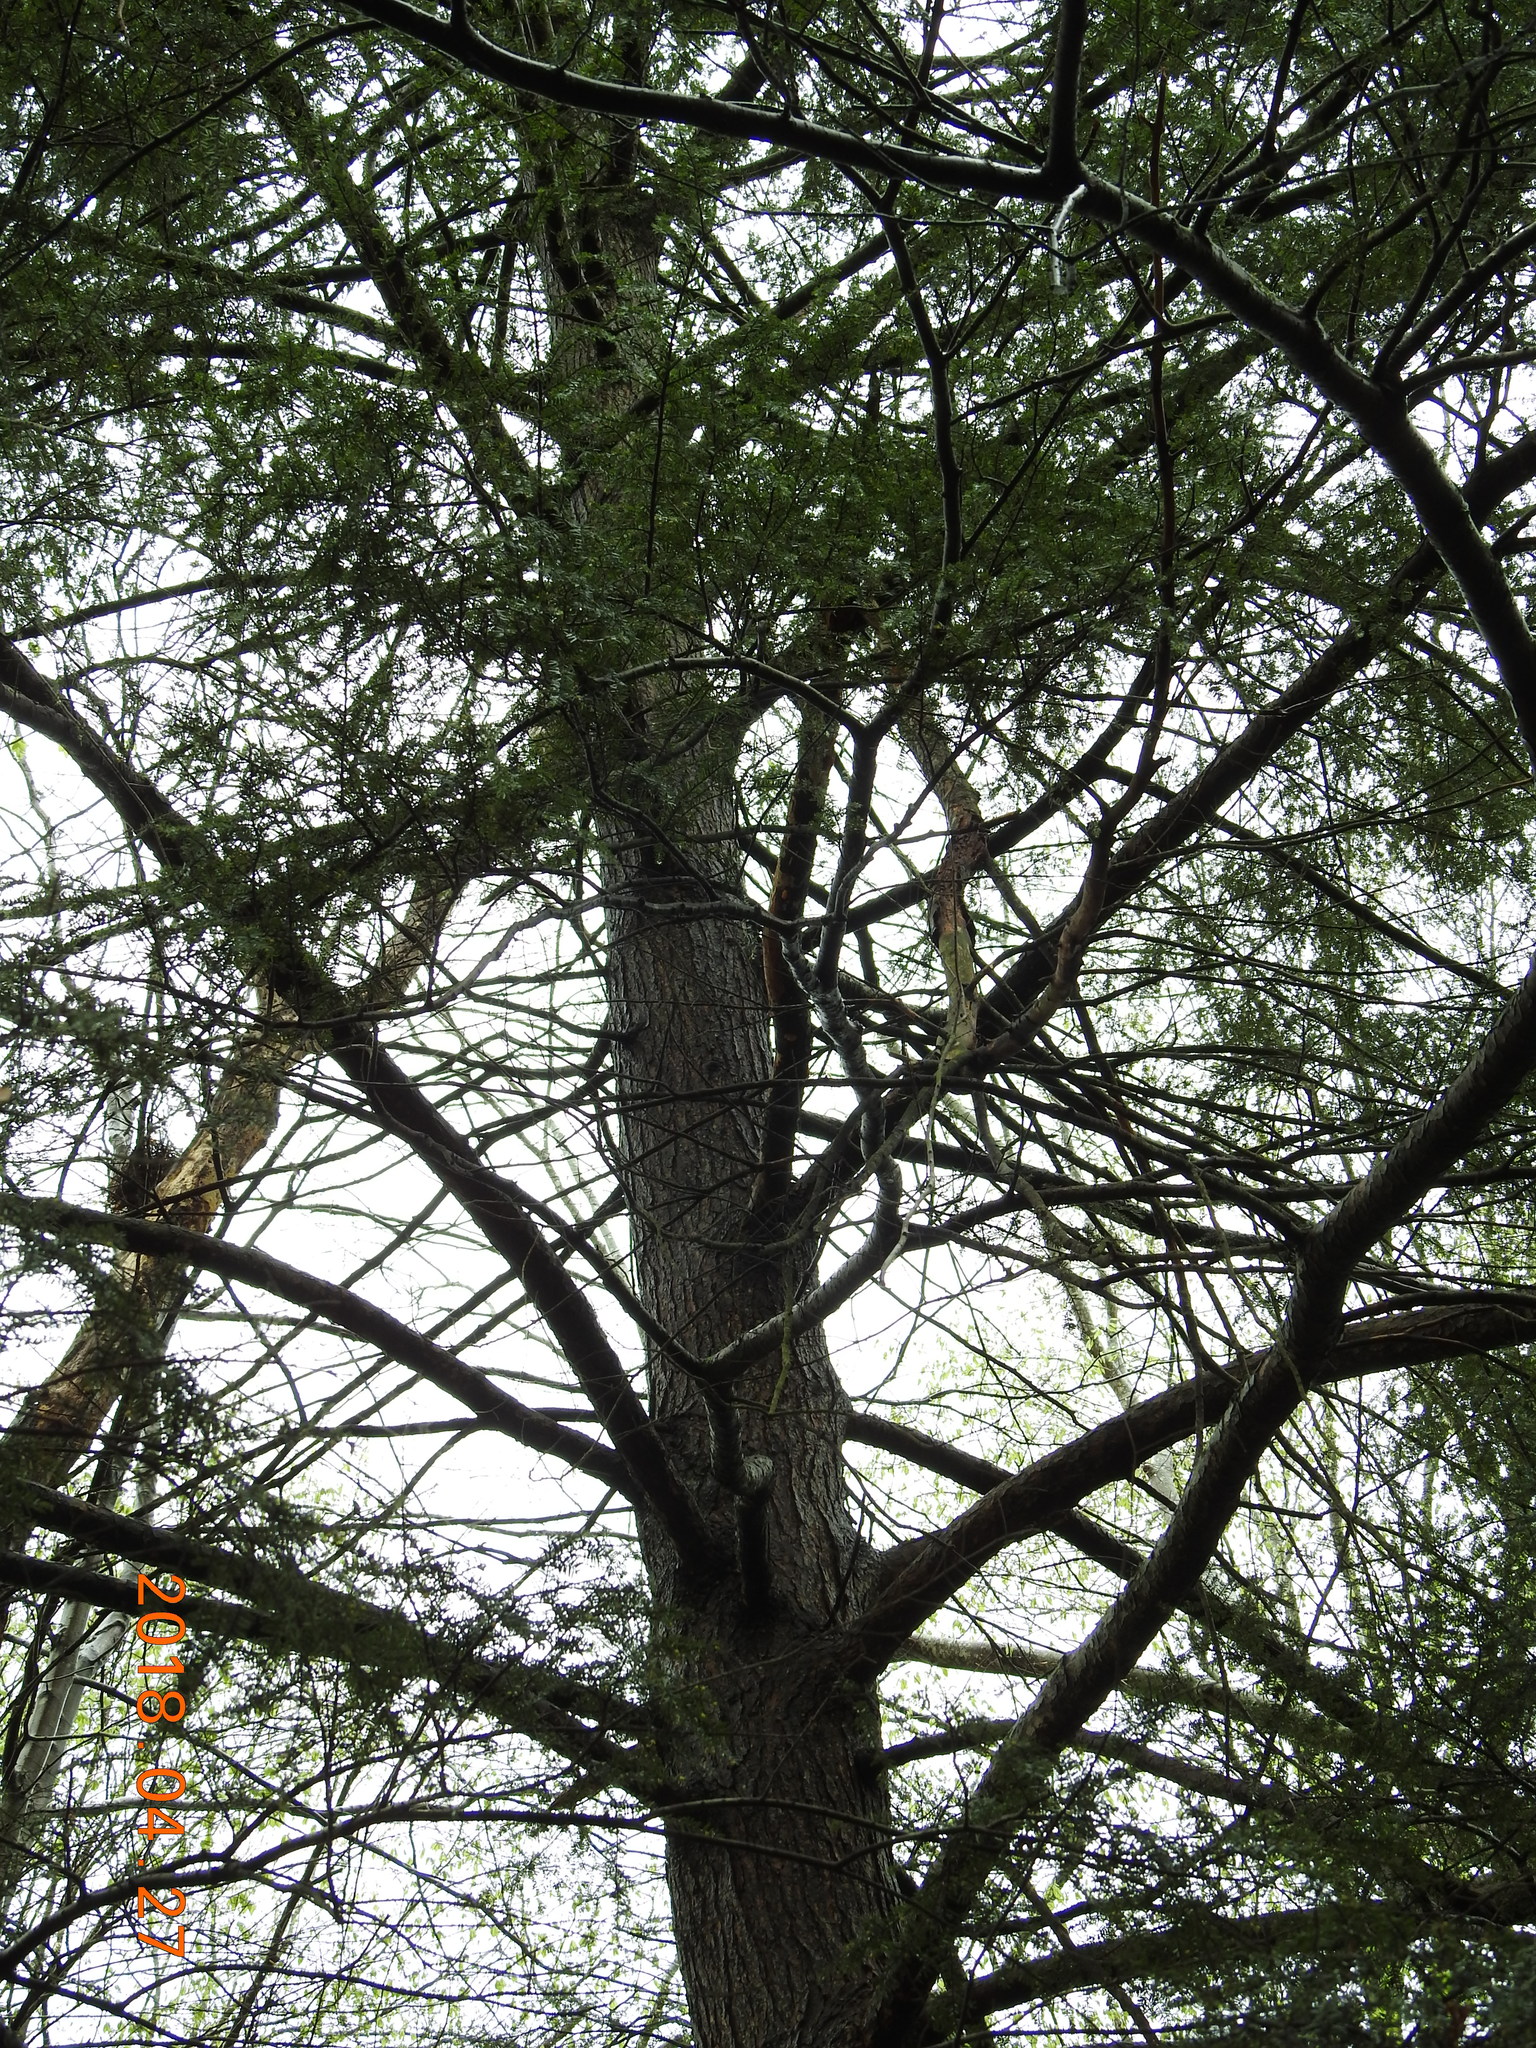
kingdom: Plantae
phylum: Tracheophyta
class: Pinopsida
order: Pinales
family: Pinaceae
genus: Tsuga
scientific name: Tsuga canadensis
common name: Eastern hemlock
